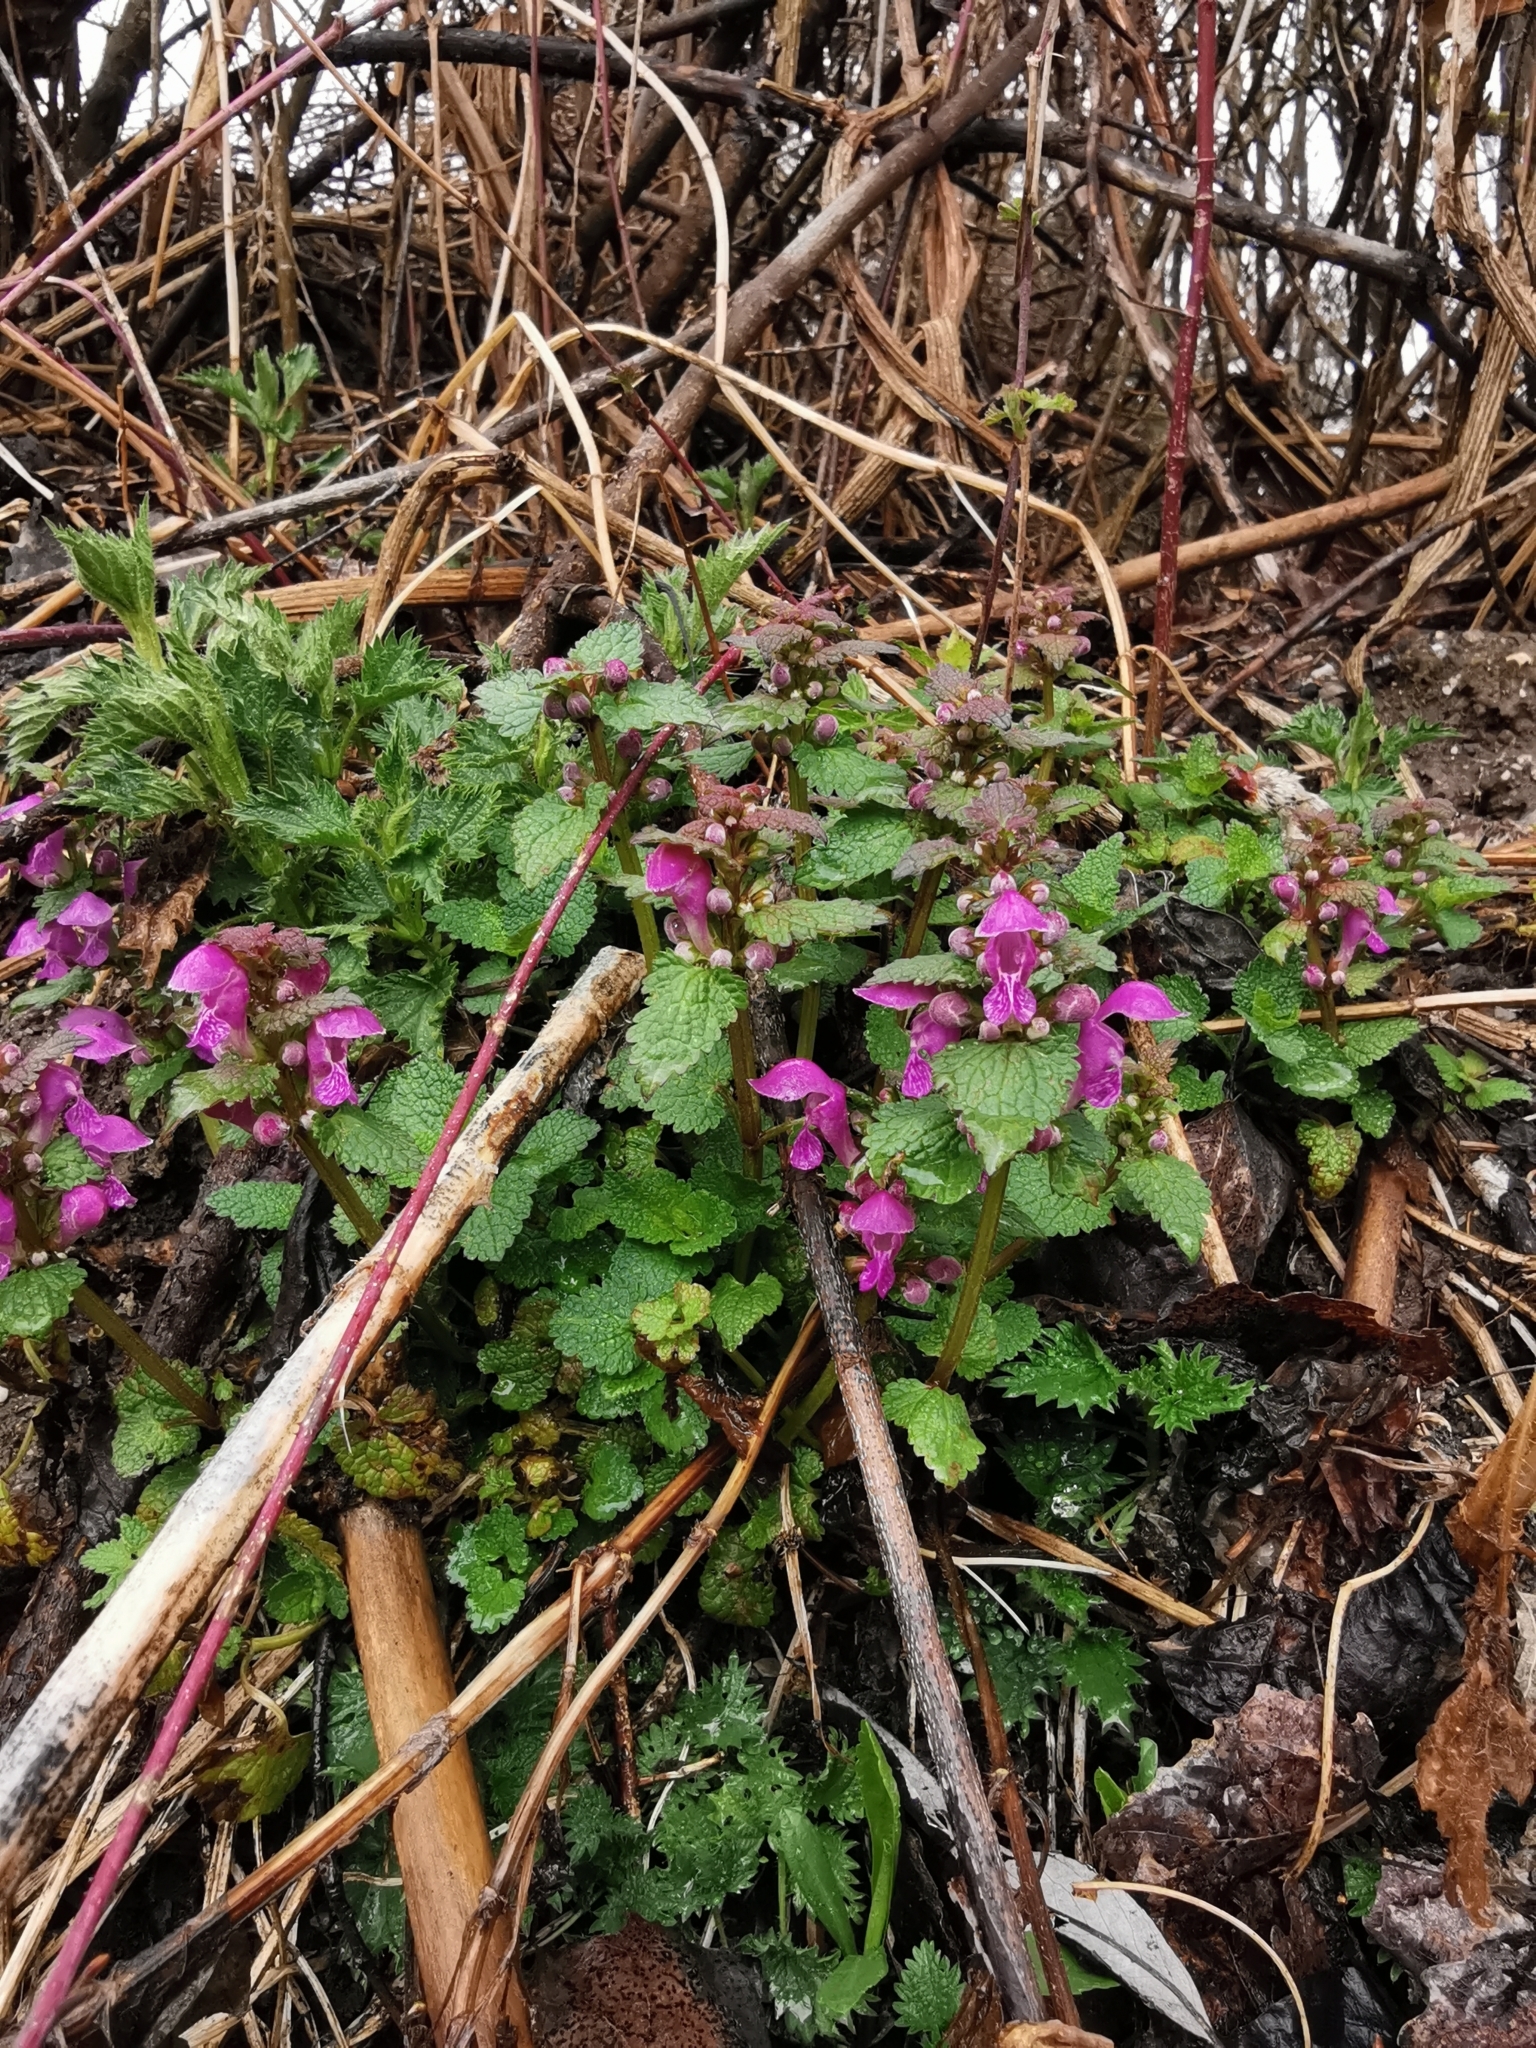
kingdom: Plantae
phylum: Tracheophyta
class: Magnoliopsida
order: Lamiales
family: Lamiaceae
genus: Lamium
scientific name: Lamium maculatum
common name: Spotted dead-nettle
